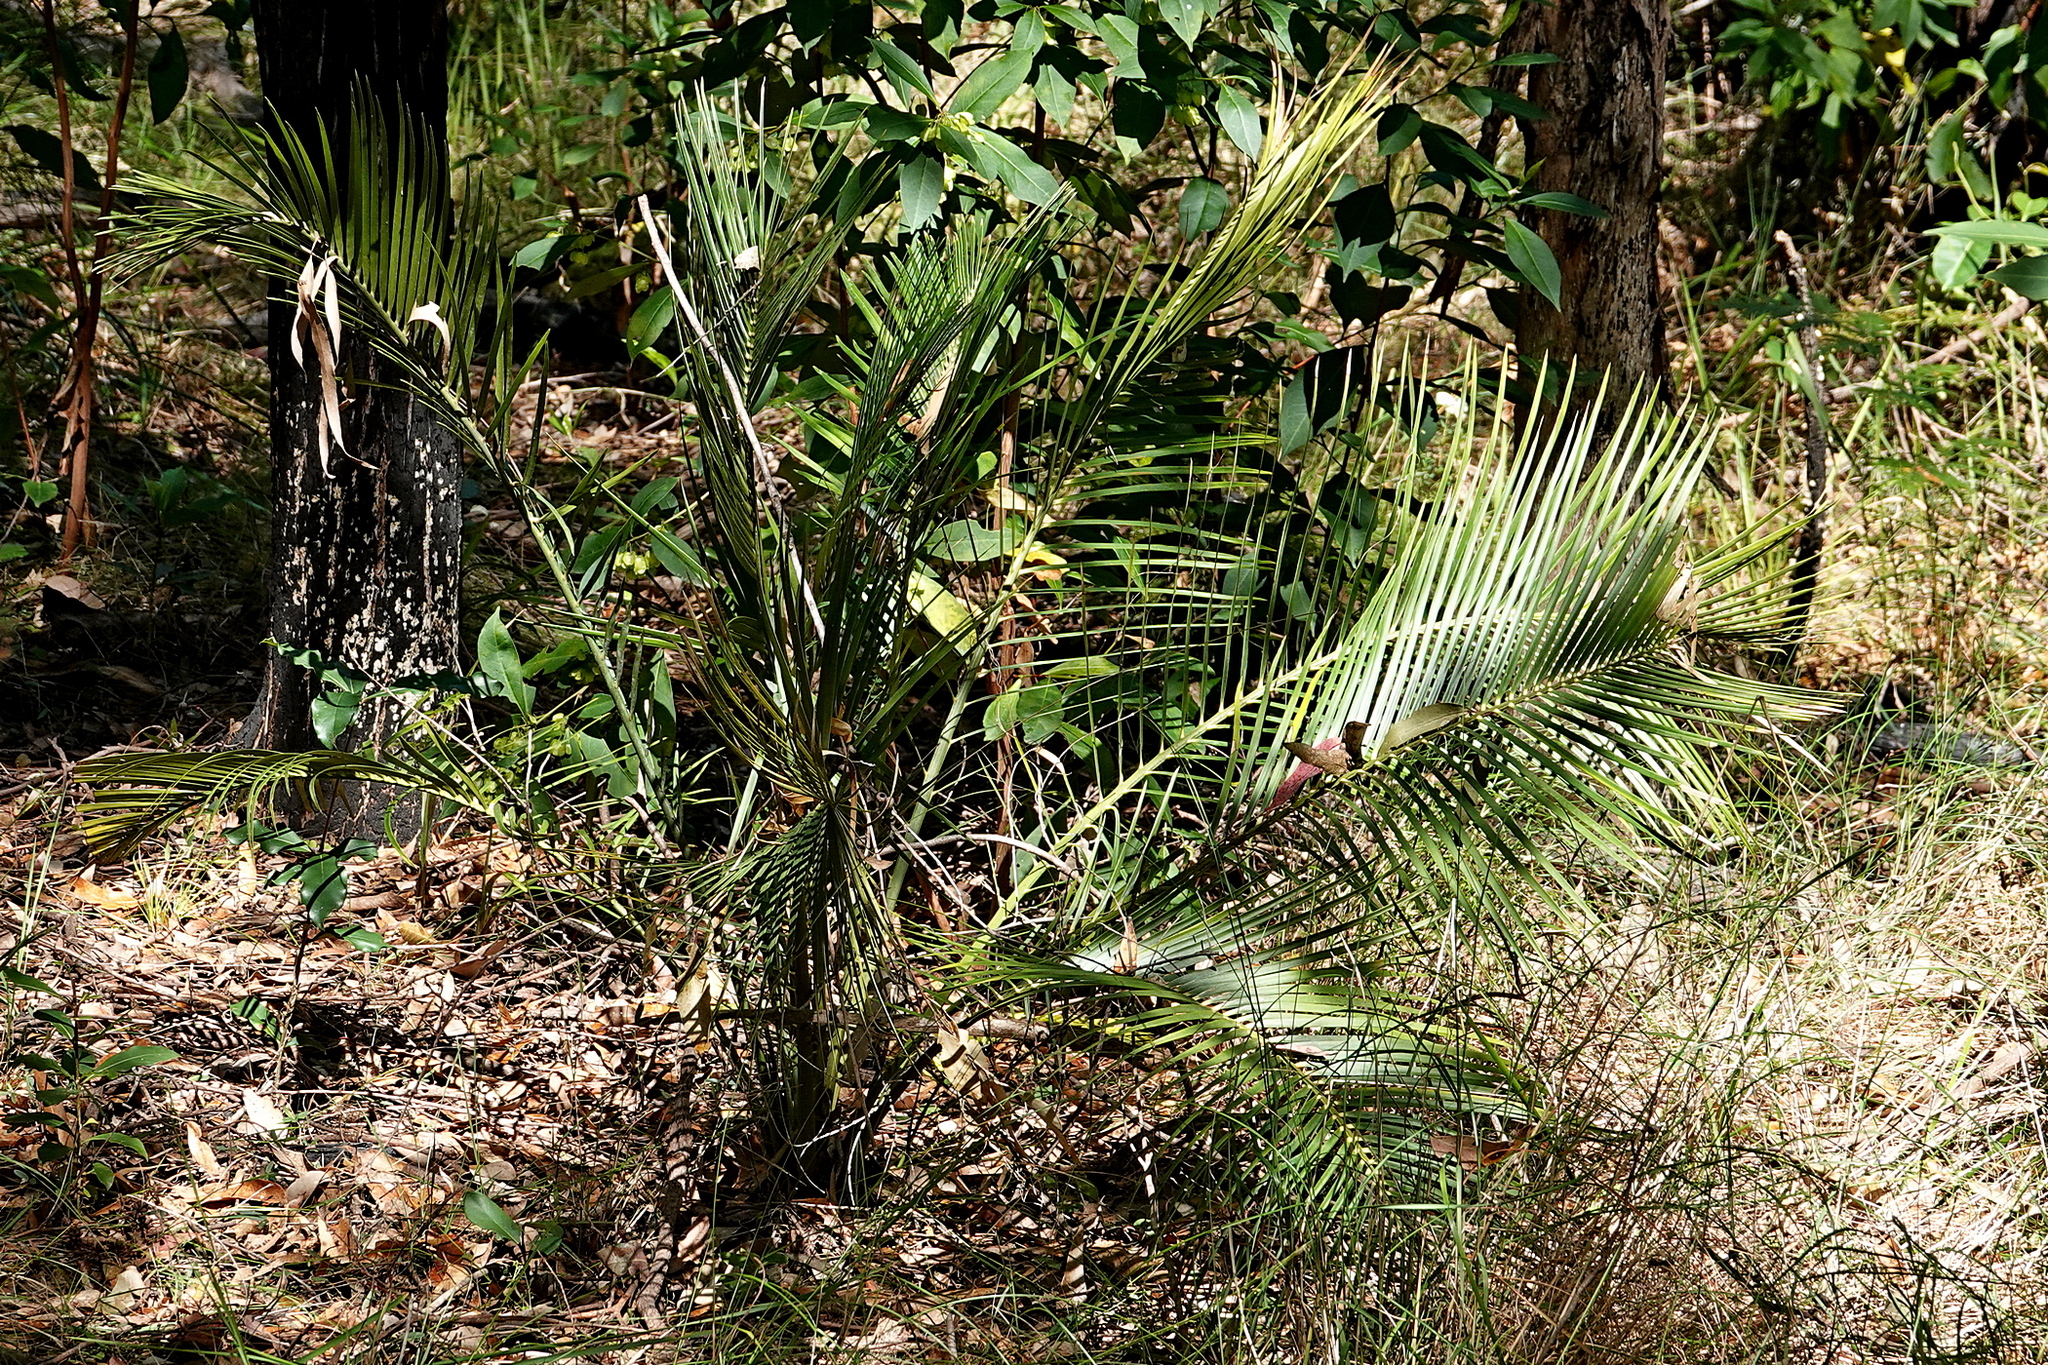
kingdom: Plantae
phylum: Tracheophyta
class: Cycadopsida
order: Cycadales
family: Zamiaceae
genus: Macrozamia
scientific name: Macrozamia communis
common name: Burrawong
